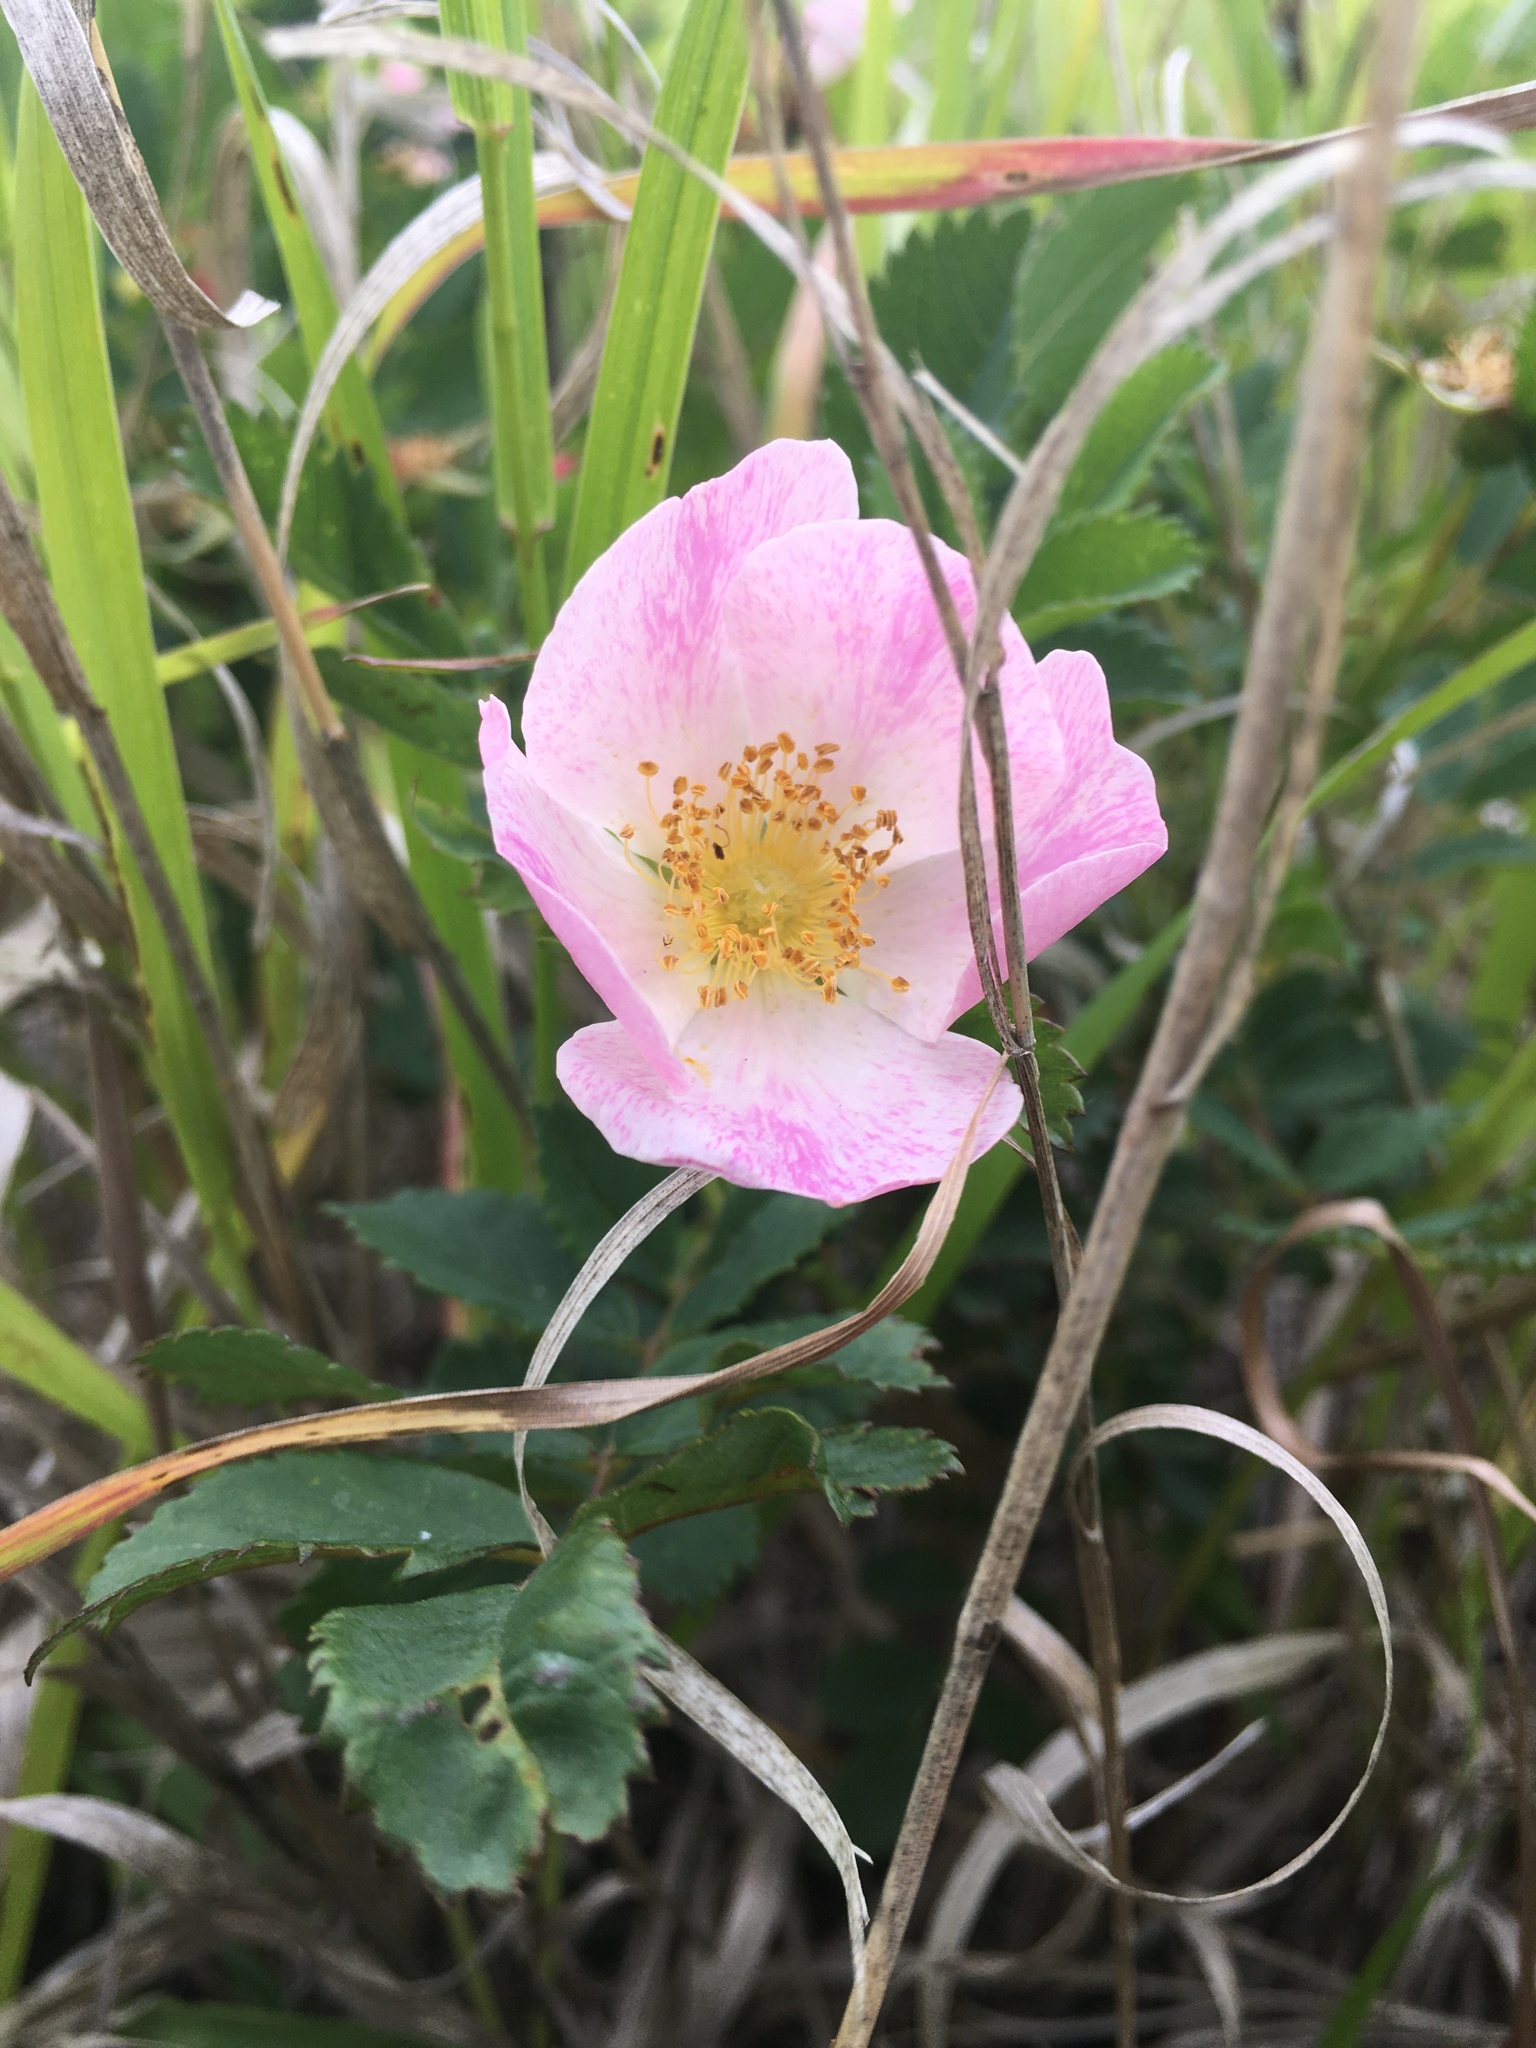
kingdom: Plantae
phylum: Tracheophyta
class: Magnoliopsida
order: Rosales
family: Rosaceae
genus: Rosa
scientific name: Rosa woodsii
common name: Woods's rose
